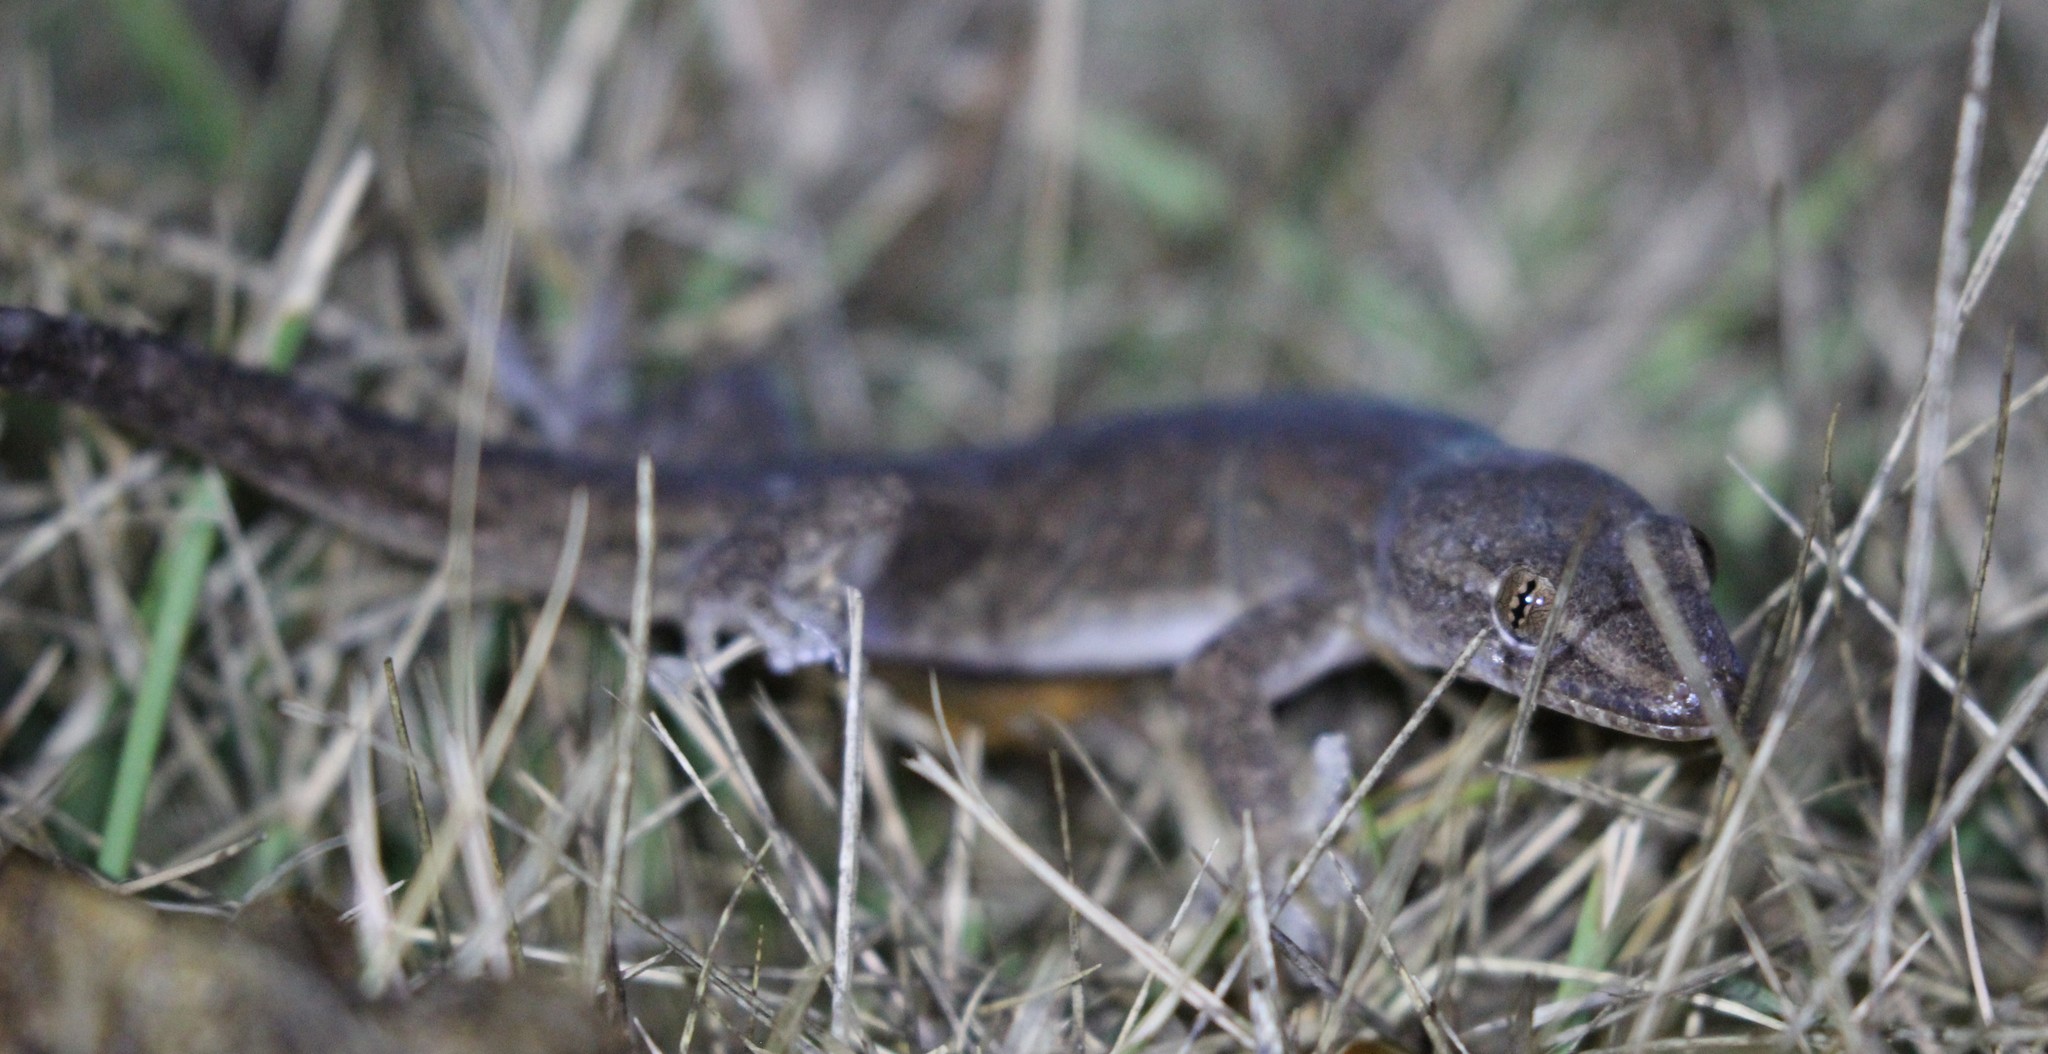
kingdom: Animalia
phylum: Chordata
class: Squamata
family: Gekkonidae
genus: Hemidactylus
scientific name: Hemidactylus frenatus
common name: Common house gecko
